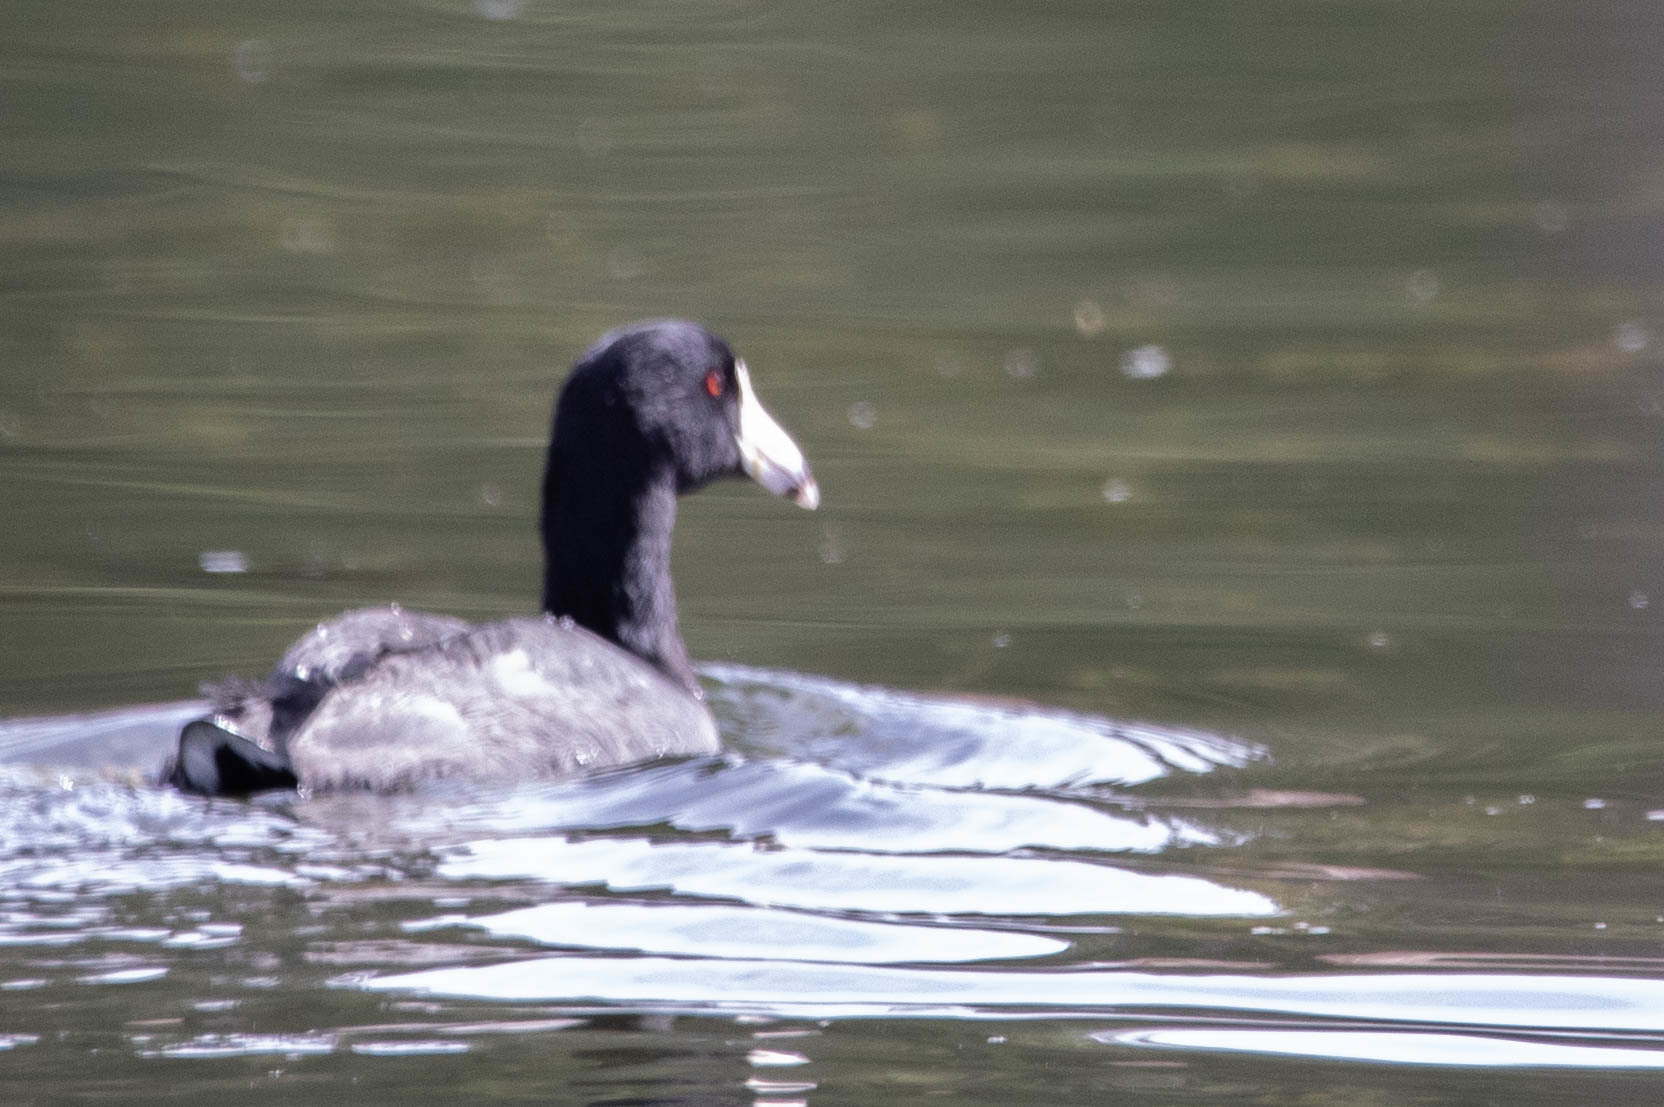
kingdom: Animalia
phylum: Chordata
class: Aves
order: Gruiformes
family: Rallidae
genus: Fulica
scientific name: Fulica americana
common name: American coot
